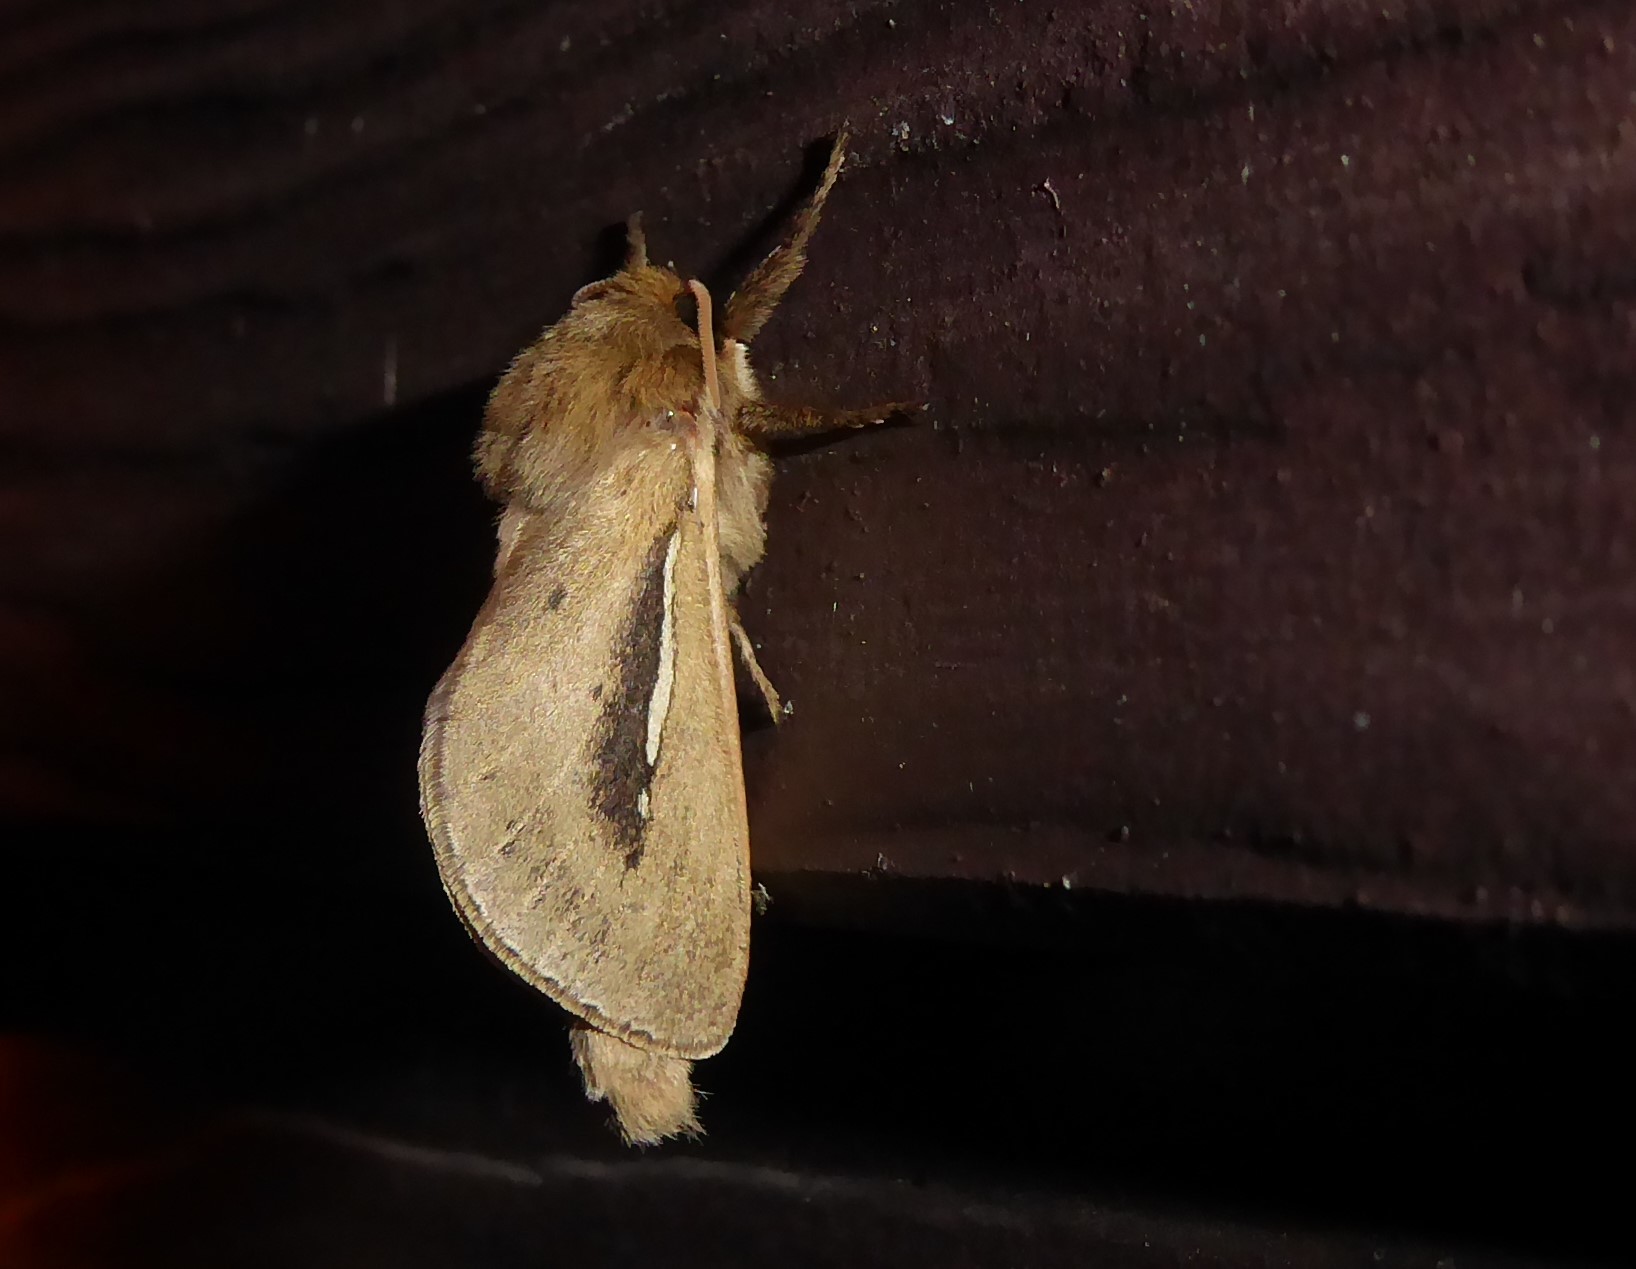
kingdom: Animalia
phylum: Arthropoda
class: Insecta
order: Lepidoptera
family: Hepialidae
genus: Wiseana
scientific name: Wiseana umbraculatus
